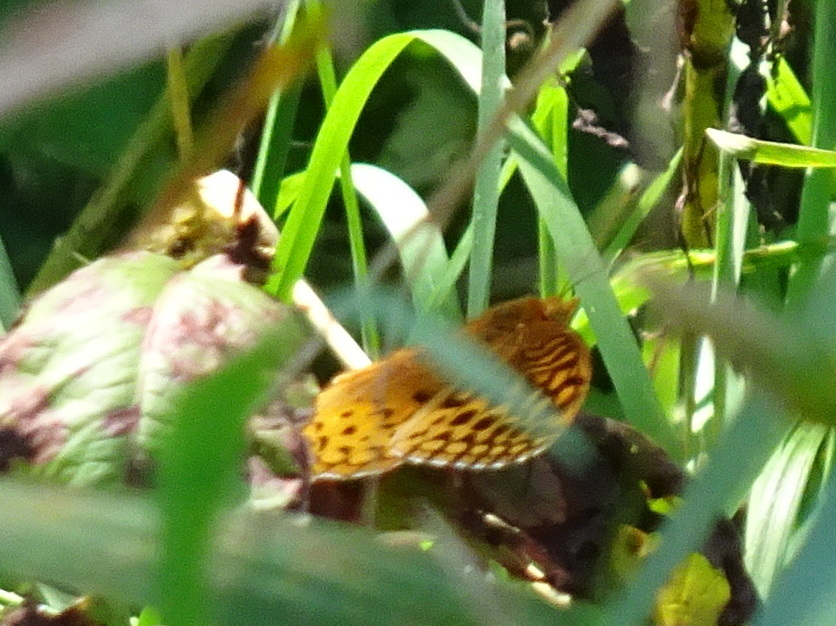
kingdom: Animalia
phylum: Arthropoda
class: Insecta
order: Lepidoptera
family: Nymphalidae
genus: Speyeria
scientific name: Speyeria cybele
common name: Great spangled fritillary
